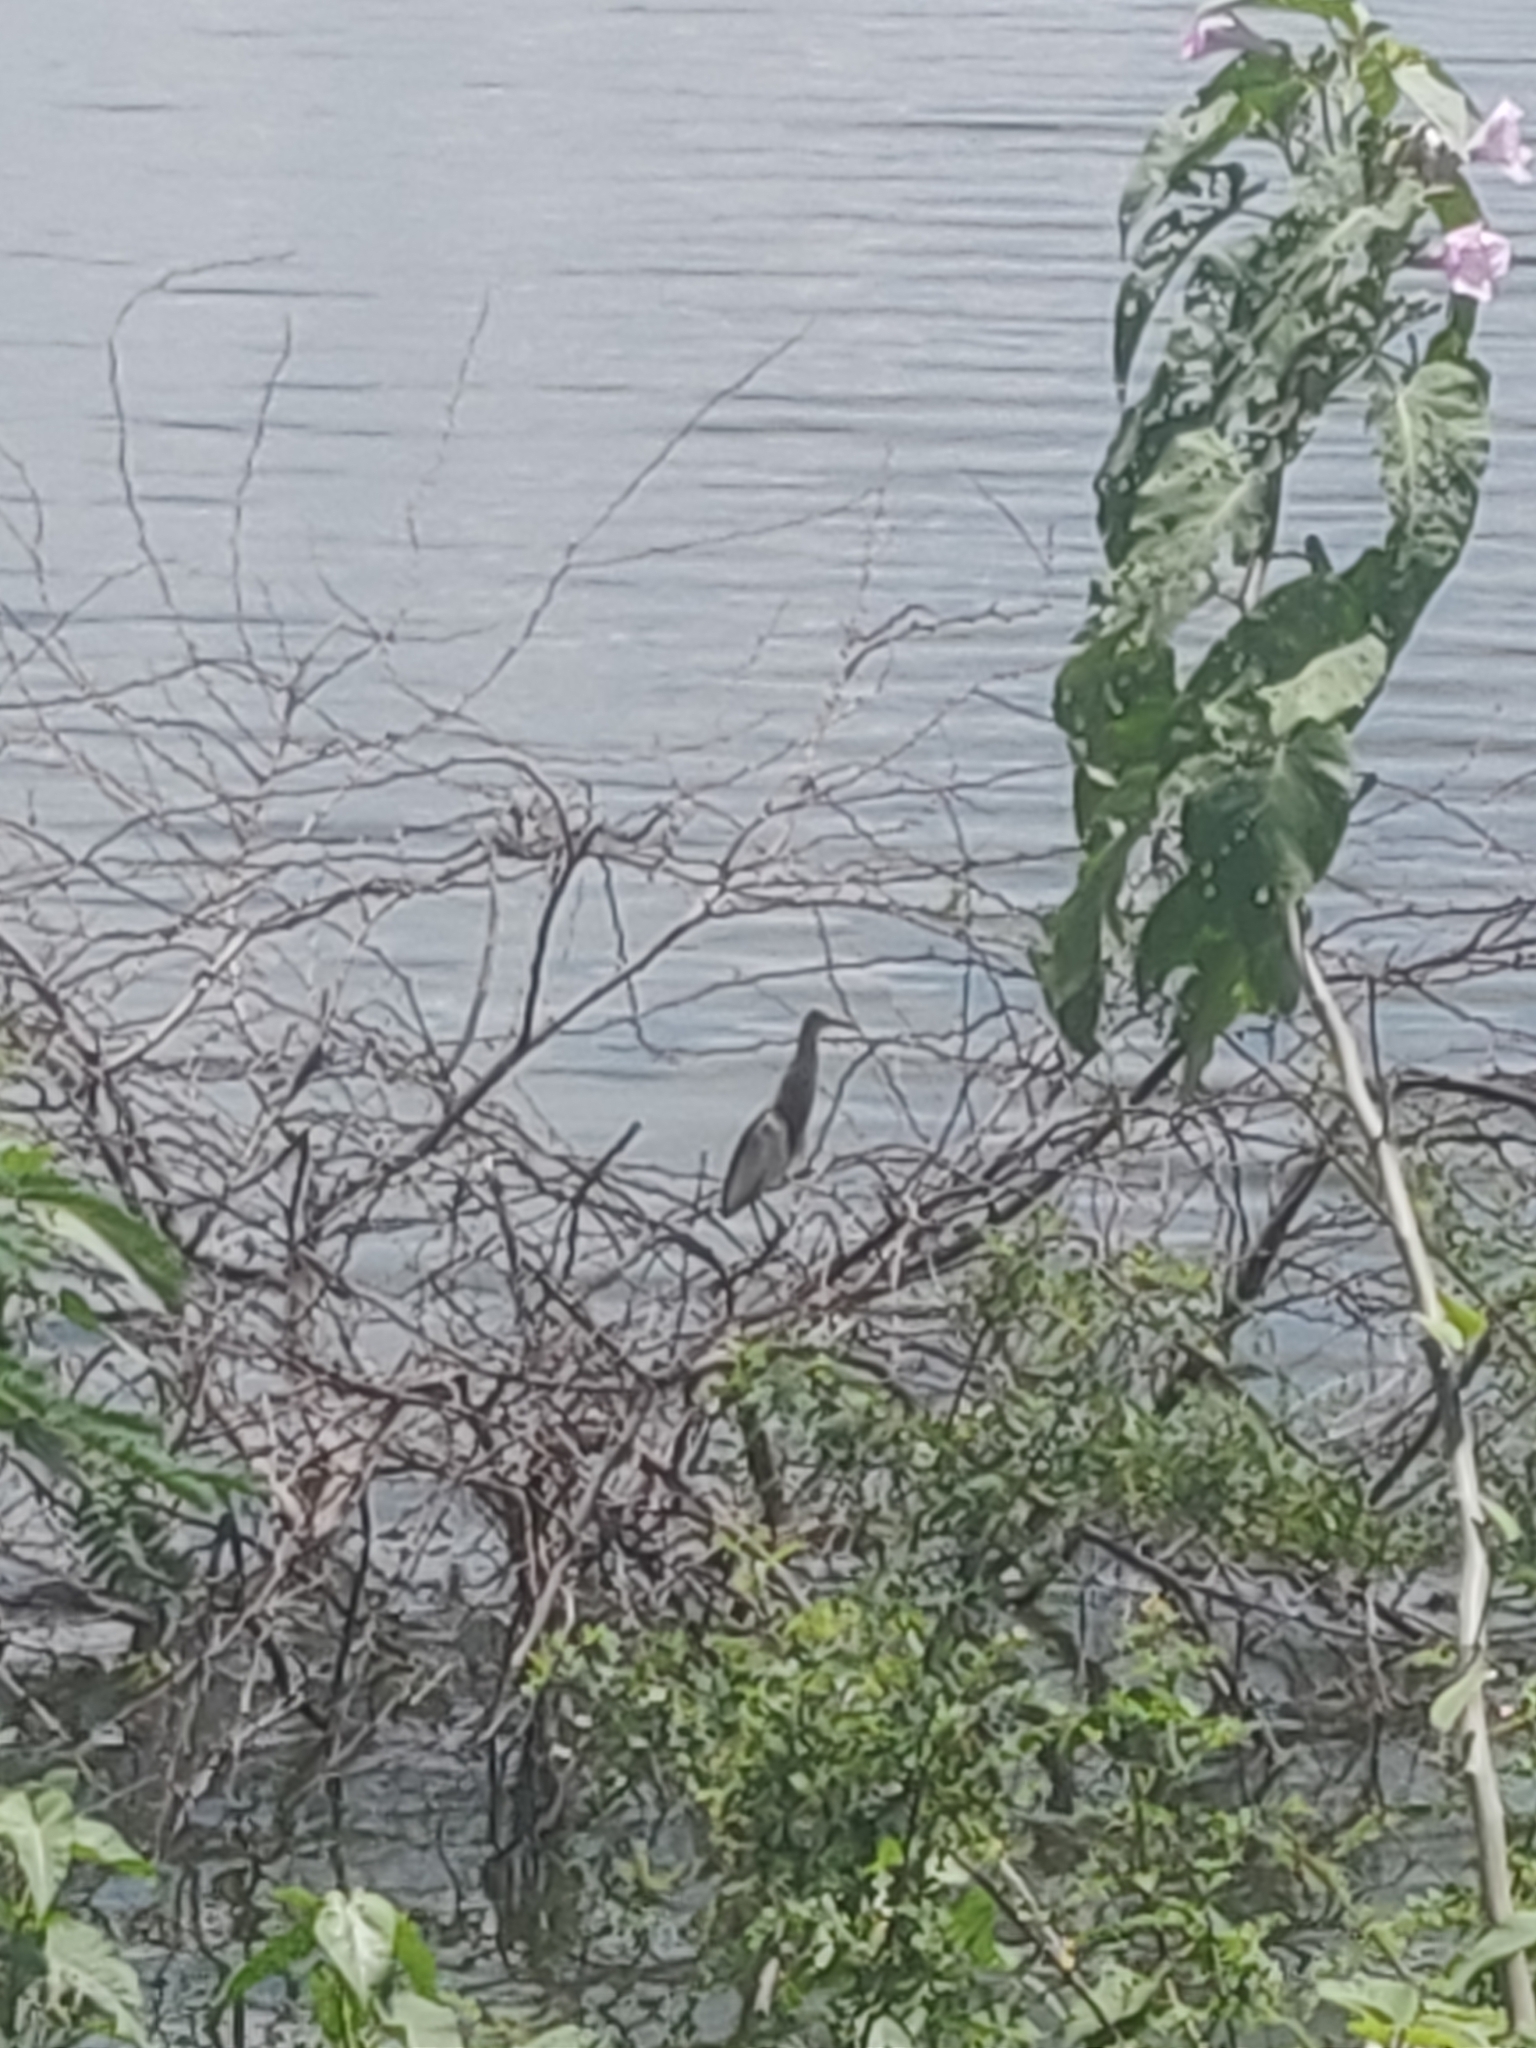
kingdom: Animalia
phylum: Chordata
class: Aves
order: Pelecaniformes
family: Ardeidae
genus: Ardeola
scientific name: Ardeola grayii
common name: Indian pond heron
